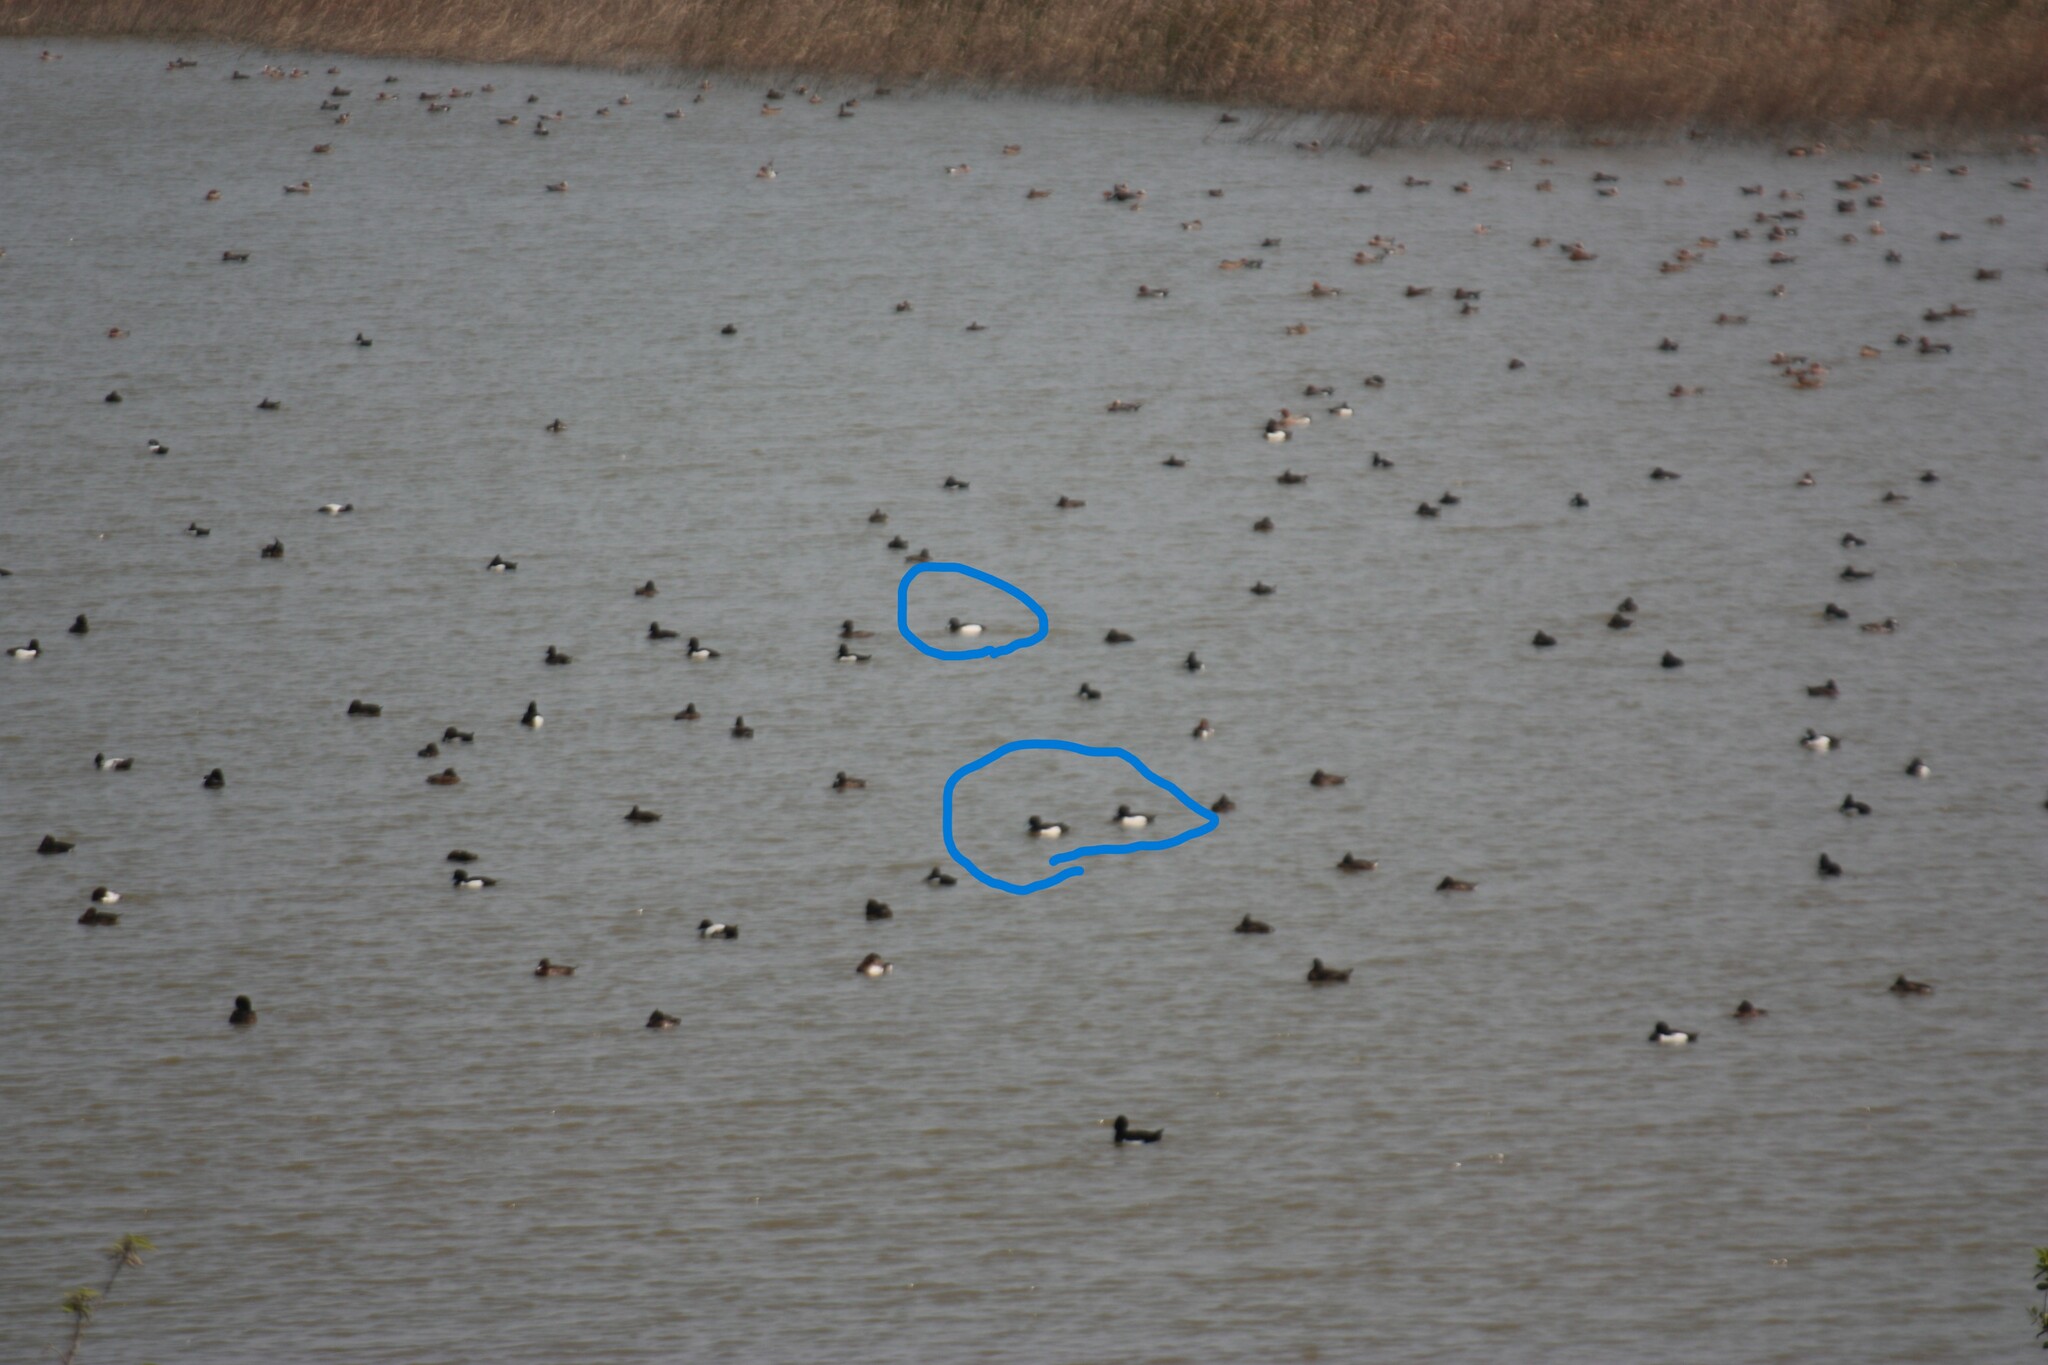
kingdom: Animalia
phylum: Chordata
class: Aves
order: Anseriformes
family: Anatidae
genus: Aythya
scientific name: Aythya fuligula
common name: Tufted duck
